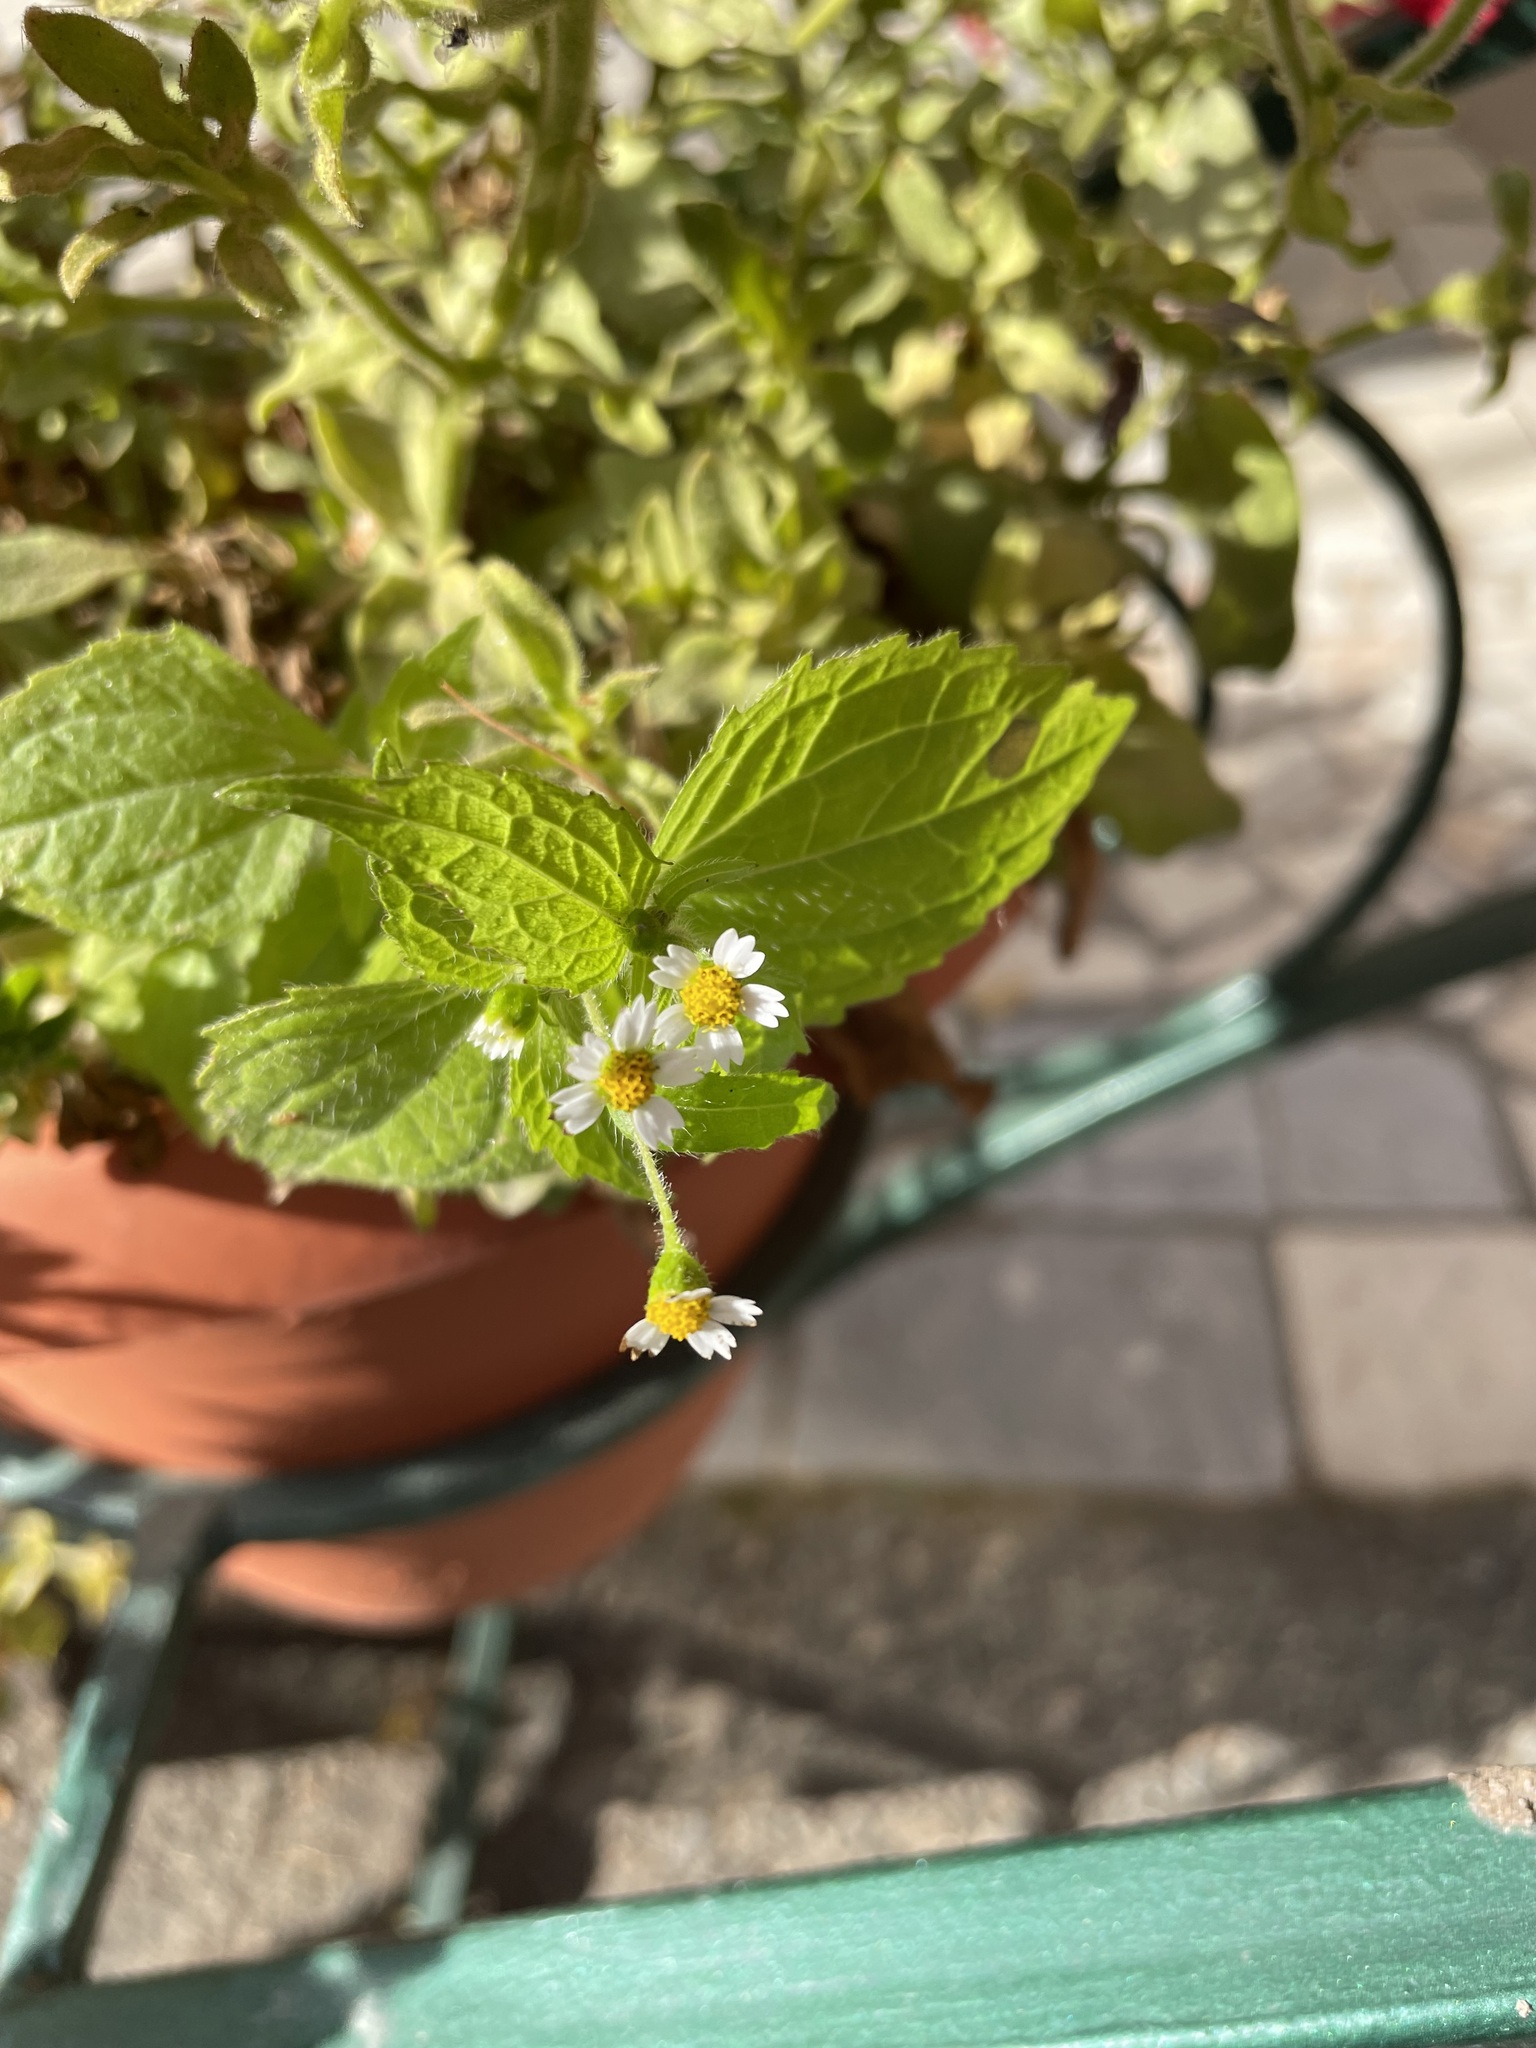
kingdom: Plantae
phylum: Tracheophyta
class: Magnoliopsida
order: Asterales
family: Asteraceae
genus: Galinsoga
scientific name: Galinsoga quadriradiata
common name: Shaggy soldier
